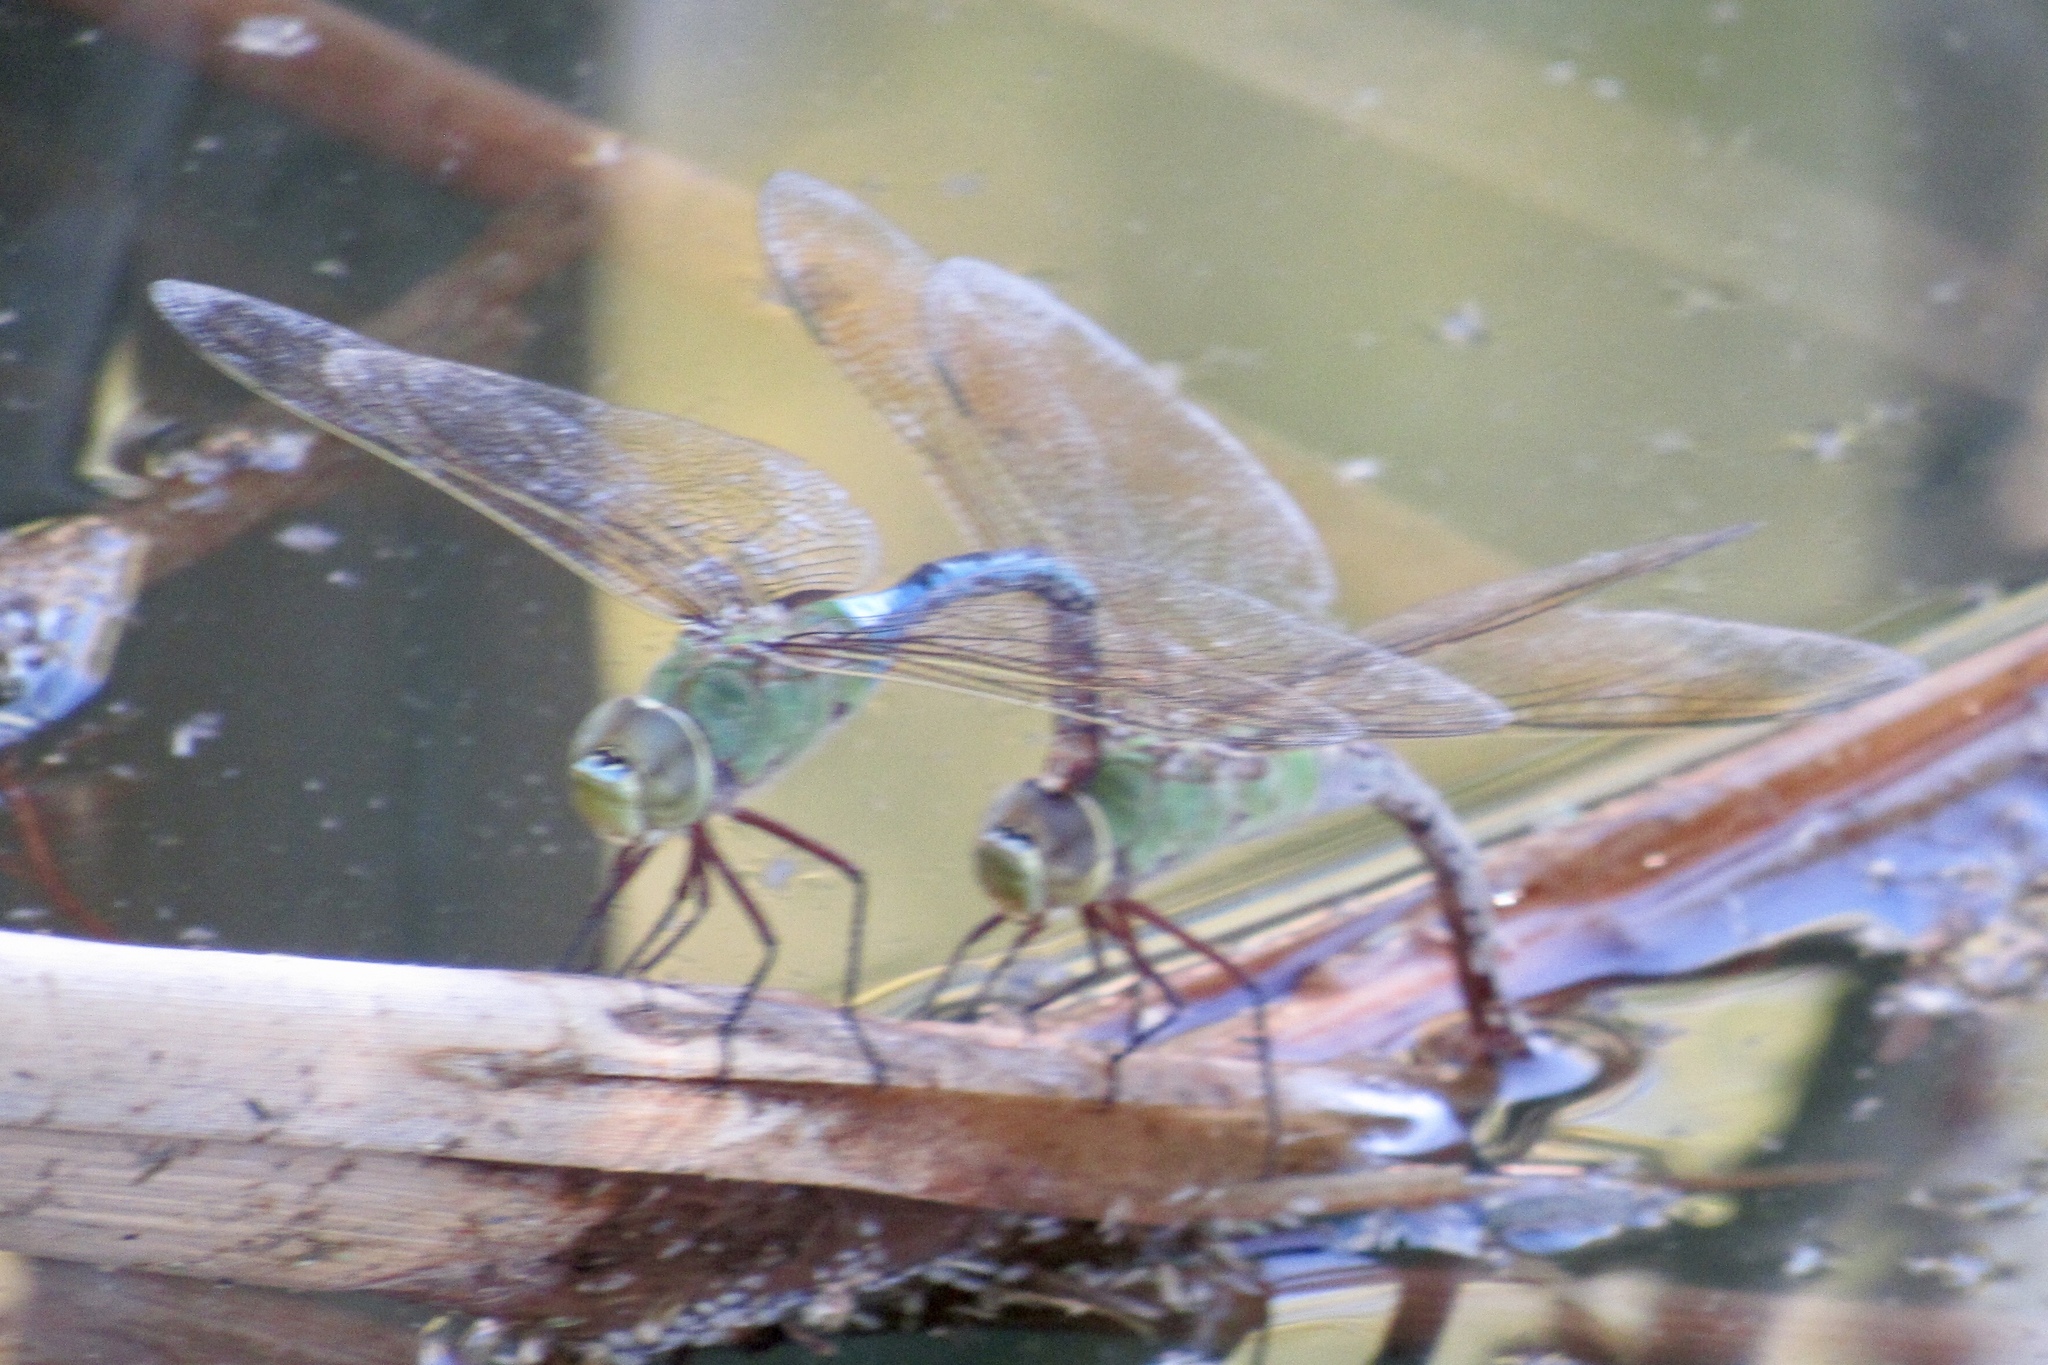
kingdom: Animalia
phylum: Arthropoda
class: Insecta
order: Odonata
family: Aeshnidae
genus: Anax
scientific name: Anax junius
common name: Common green darner
